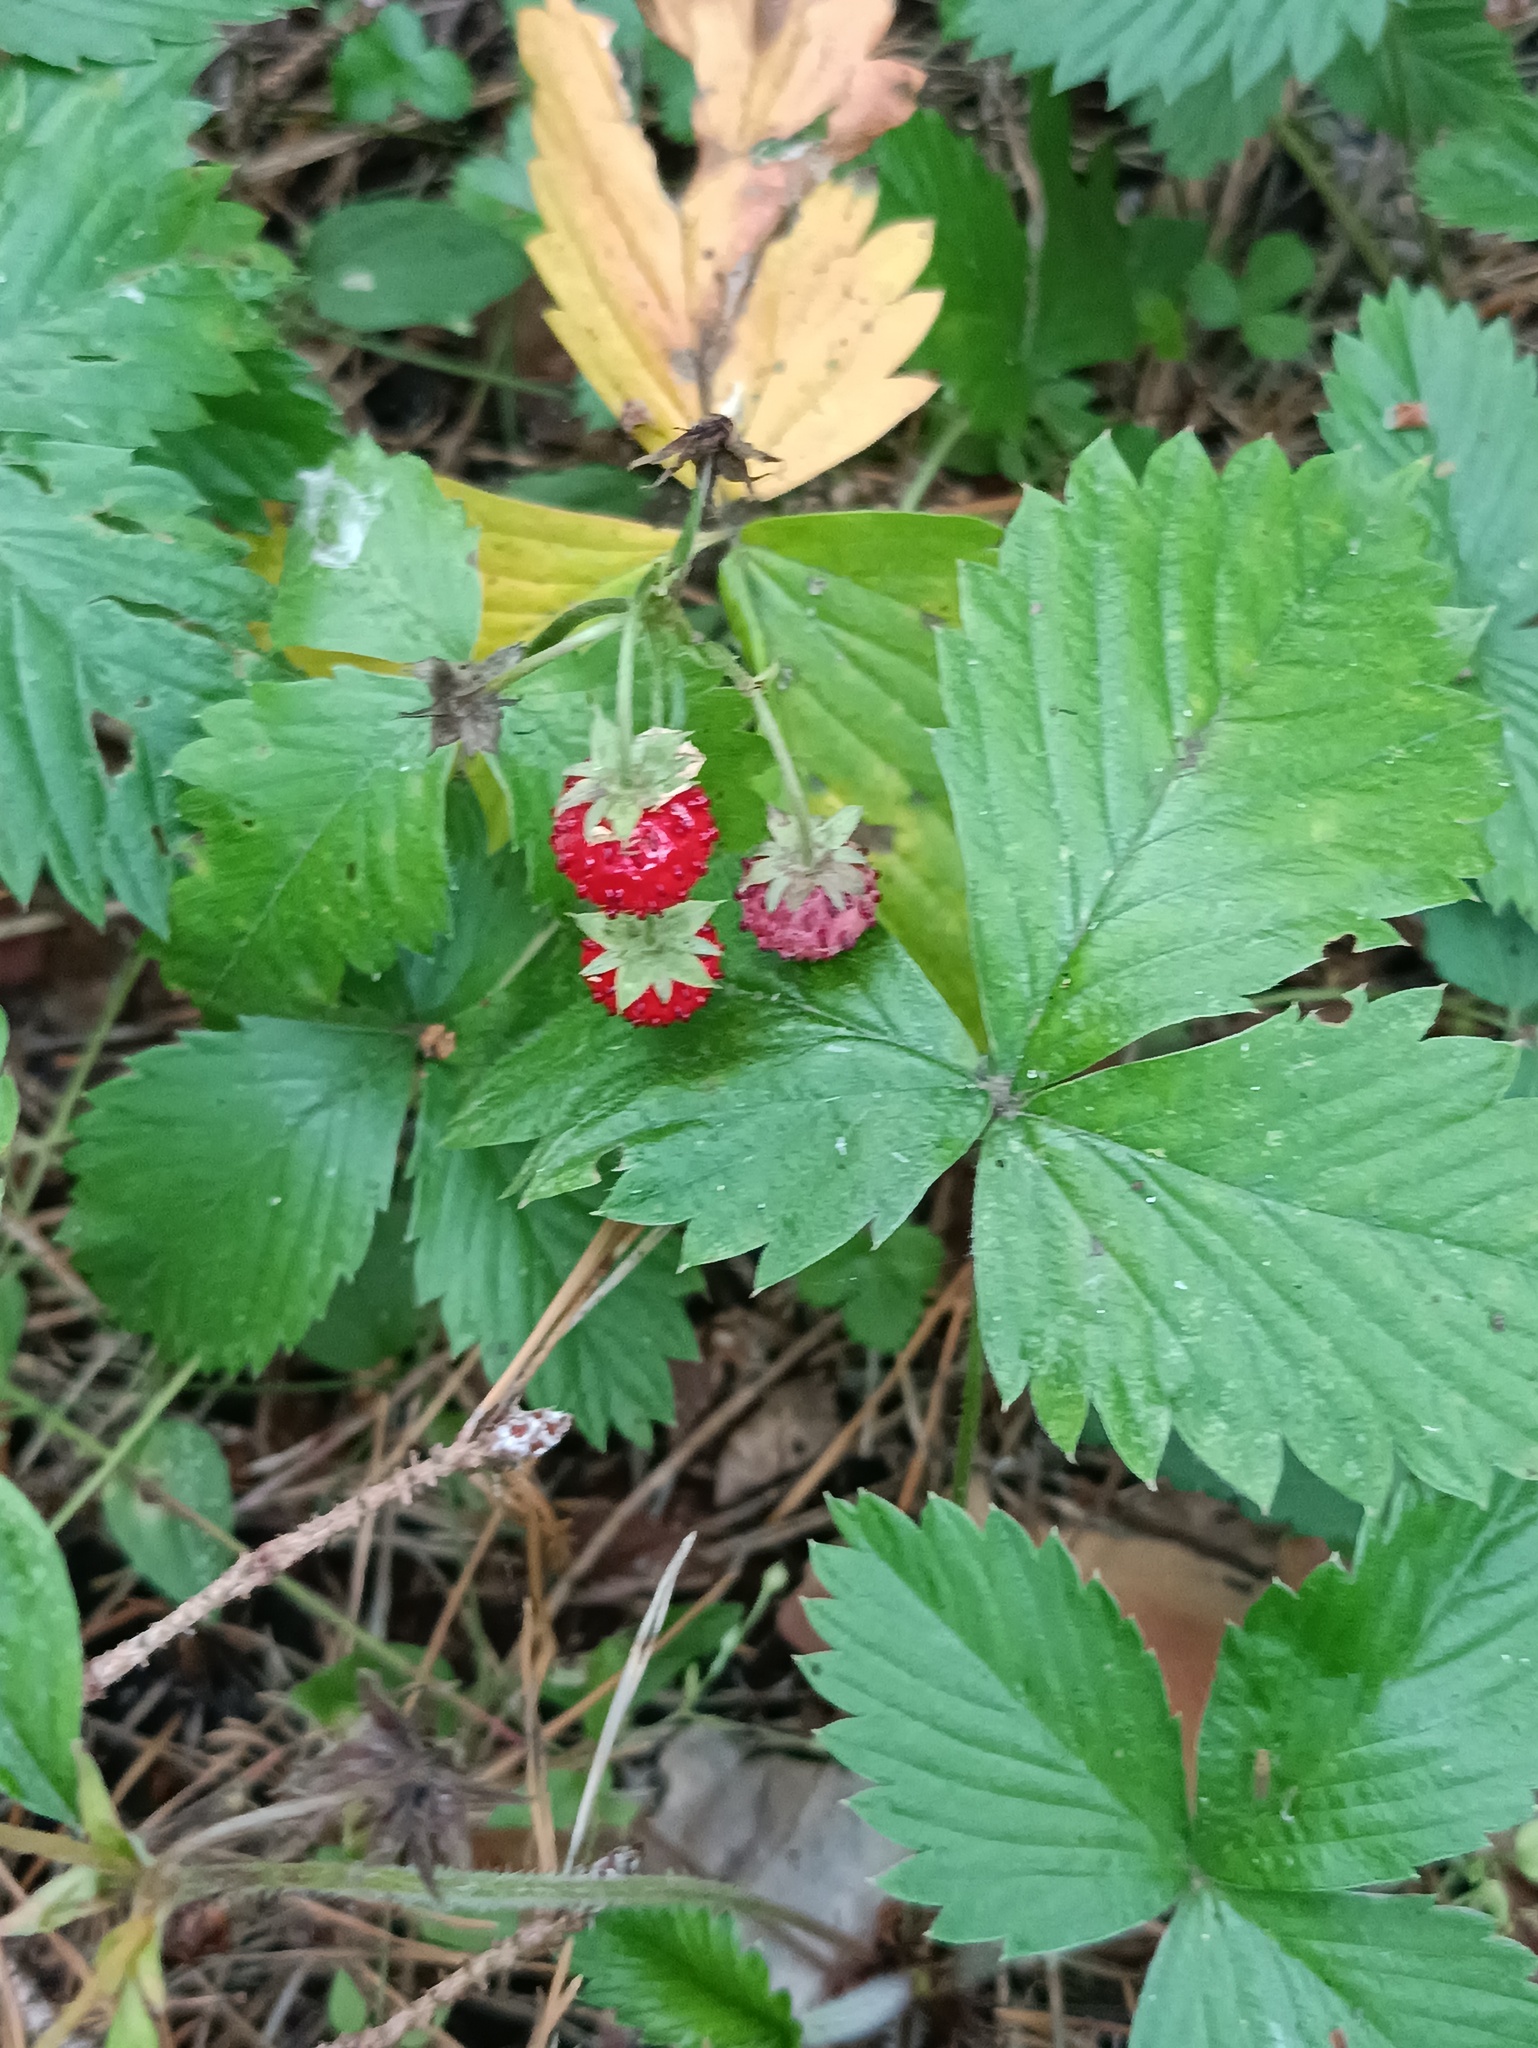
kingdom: Plantae
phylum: Tracheophyta
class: Magnoliopsida
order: Rosales
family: Rosaceae
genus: Fragaria
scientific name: Fragaria vesca
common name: Wild strawberry
